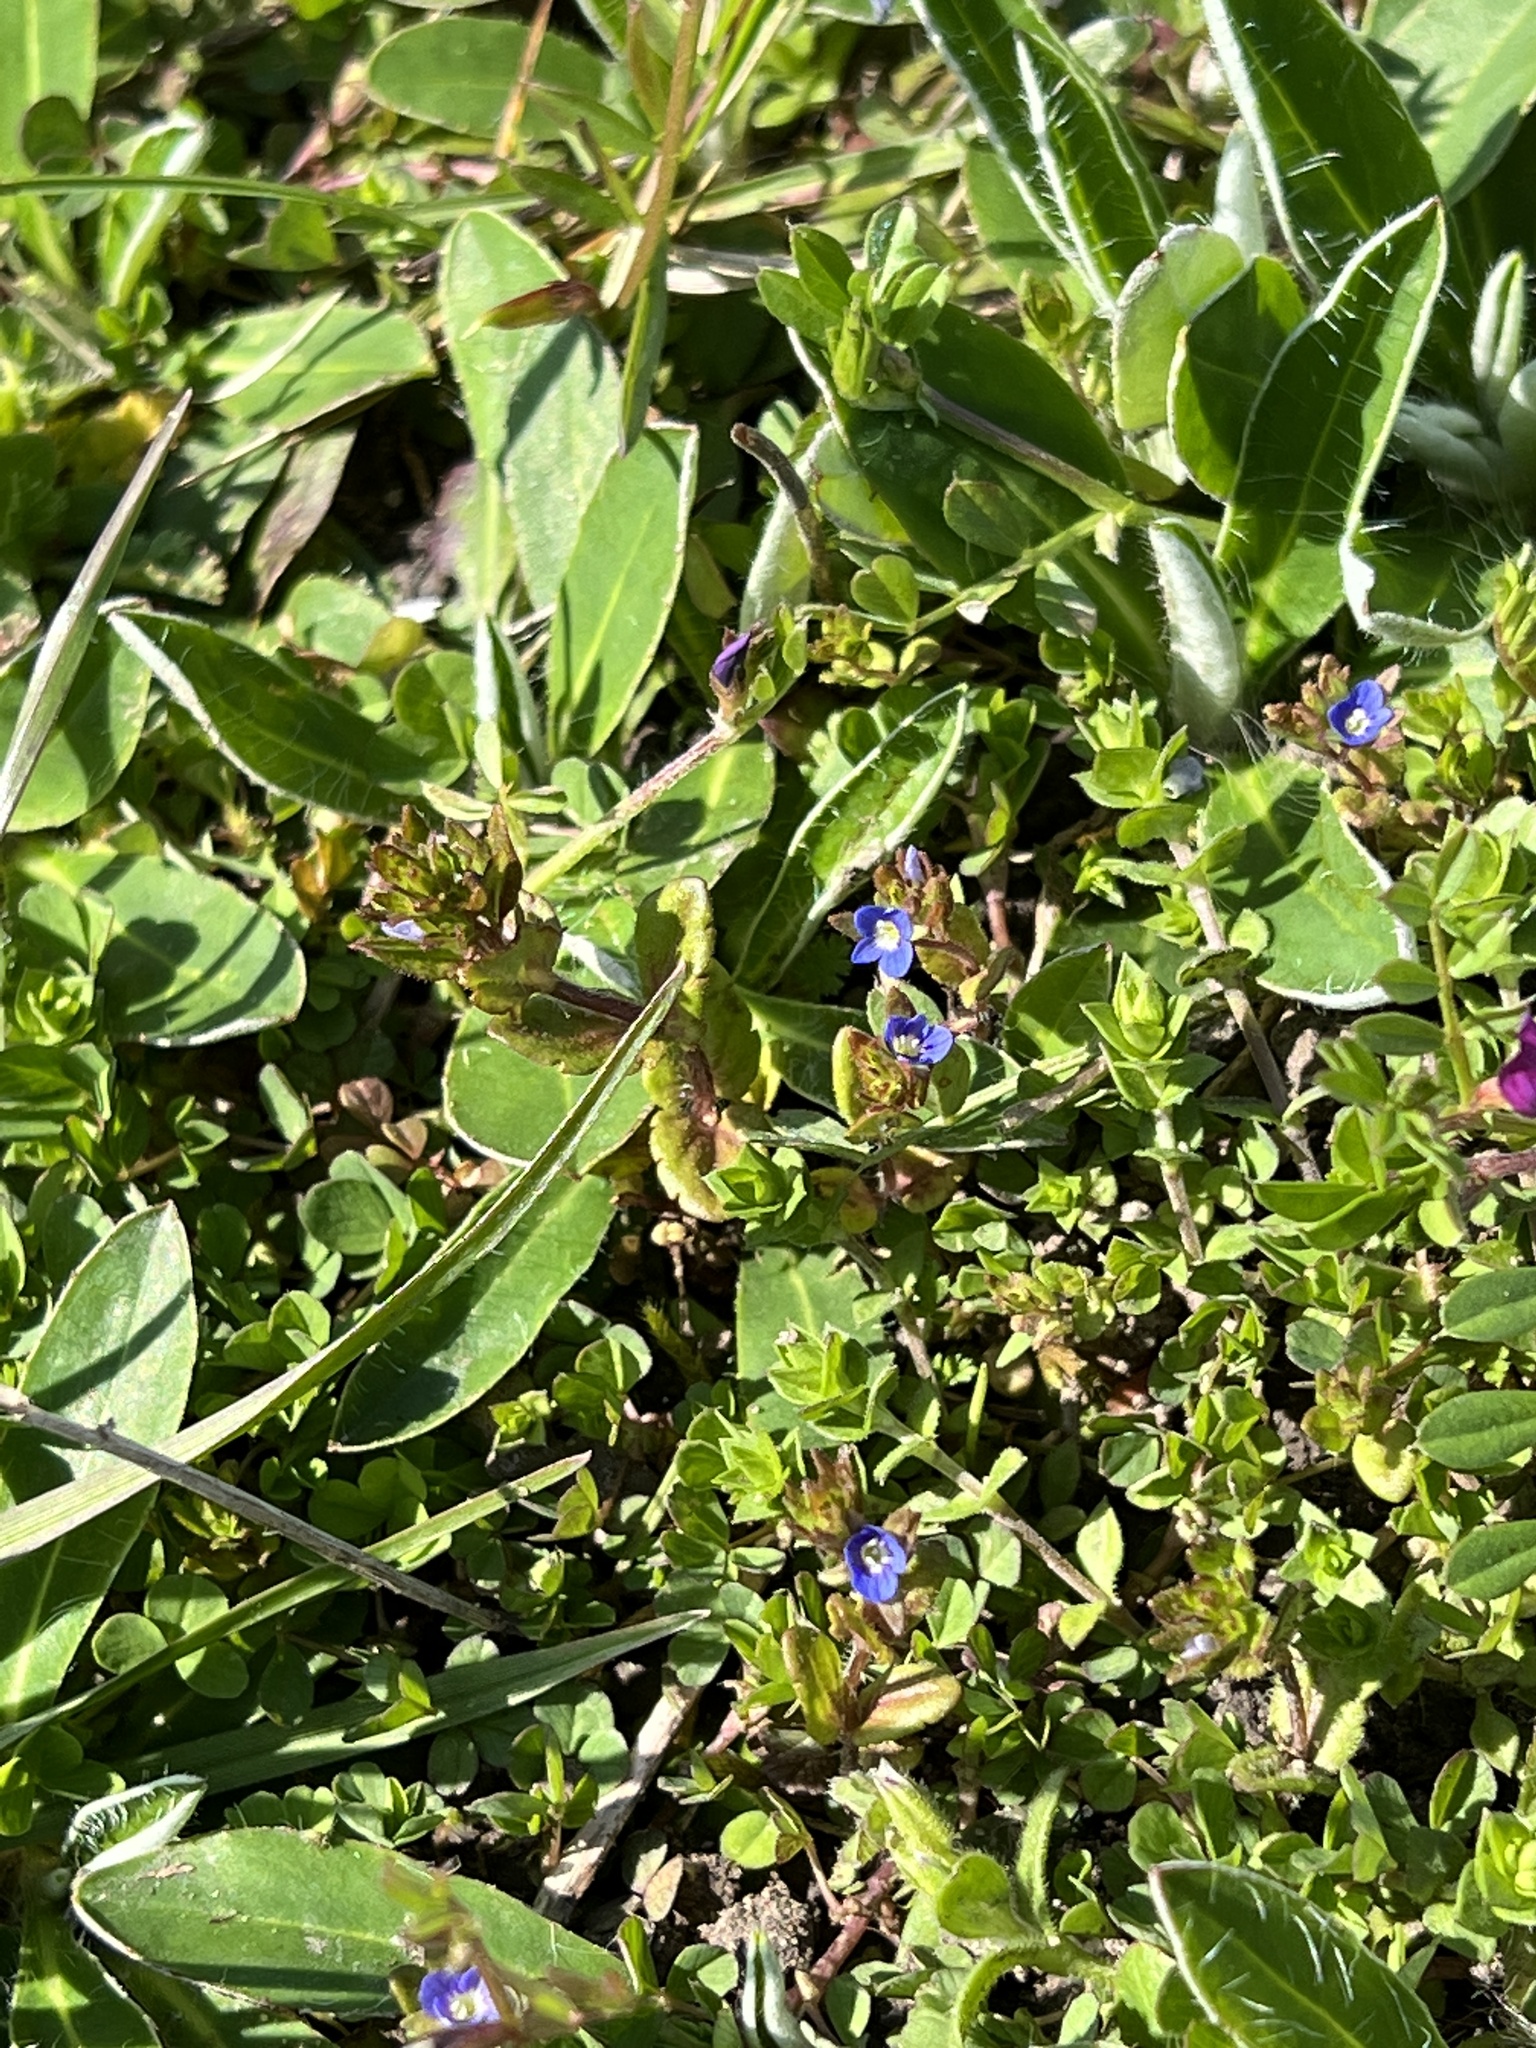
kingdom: Plantae
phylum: Tracheophyta
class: Magnoliopsida
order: Lamiales
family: Plantaginaceae
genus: Veronica
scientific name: Veronica arvensis
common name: Corn speedwell
